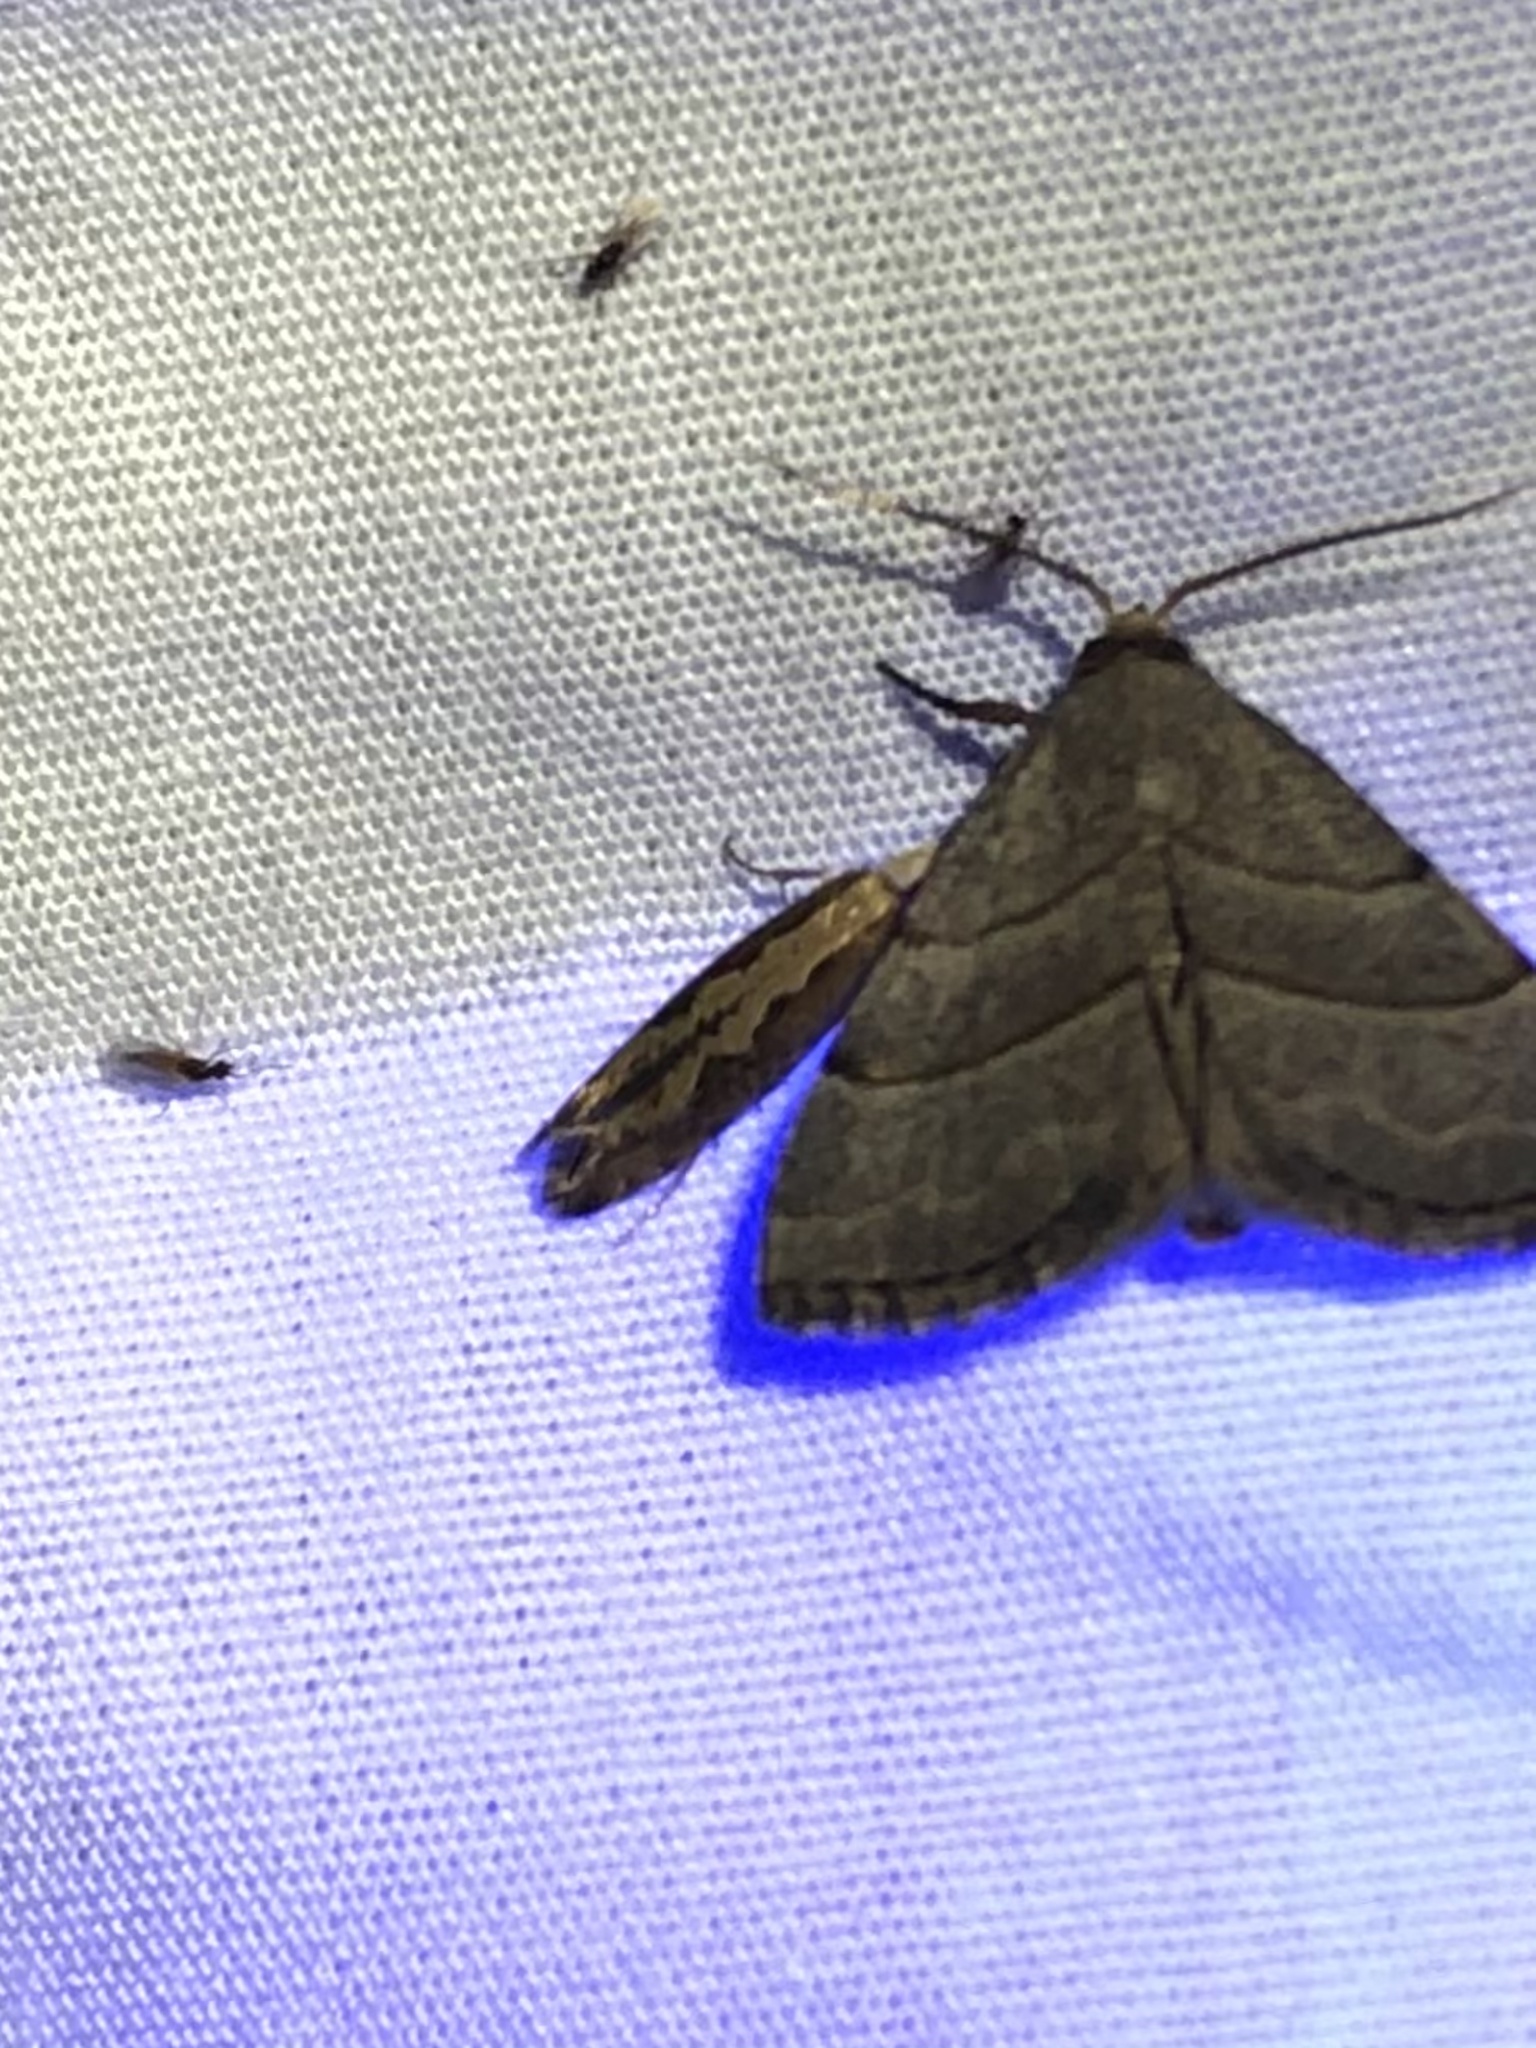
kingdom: Animalia
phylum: Arthropoda
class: Insecta
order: Lepidoptera
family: Erebidae
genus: Zelicodes
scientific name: Zelicodes linearis
